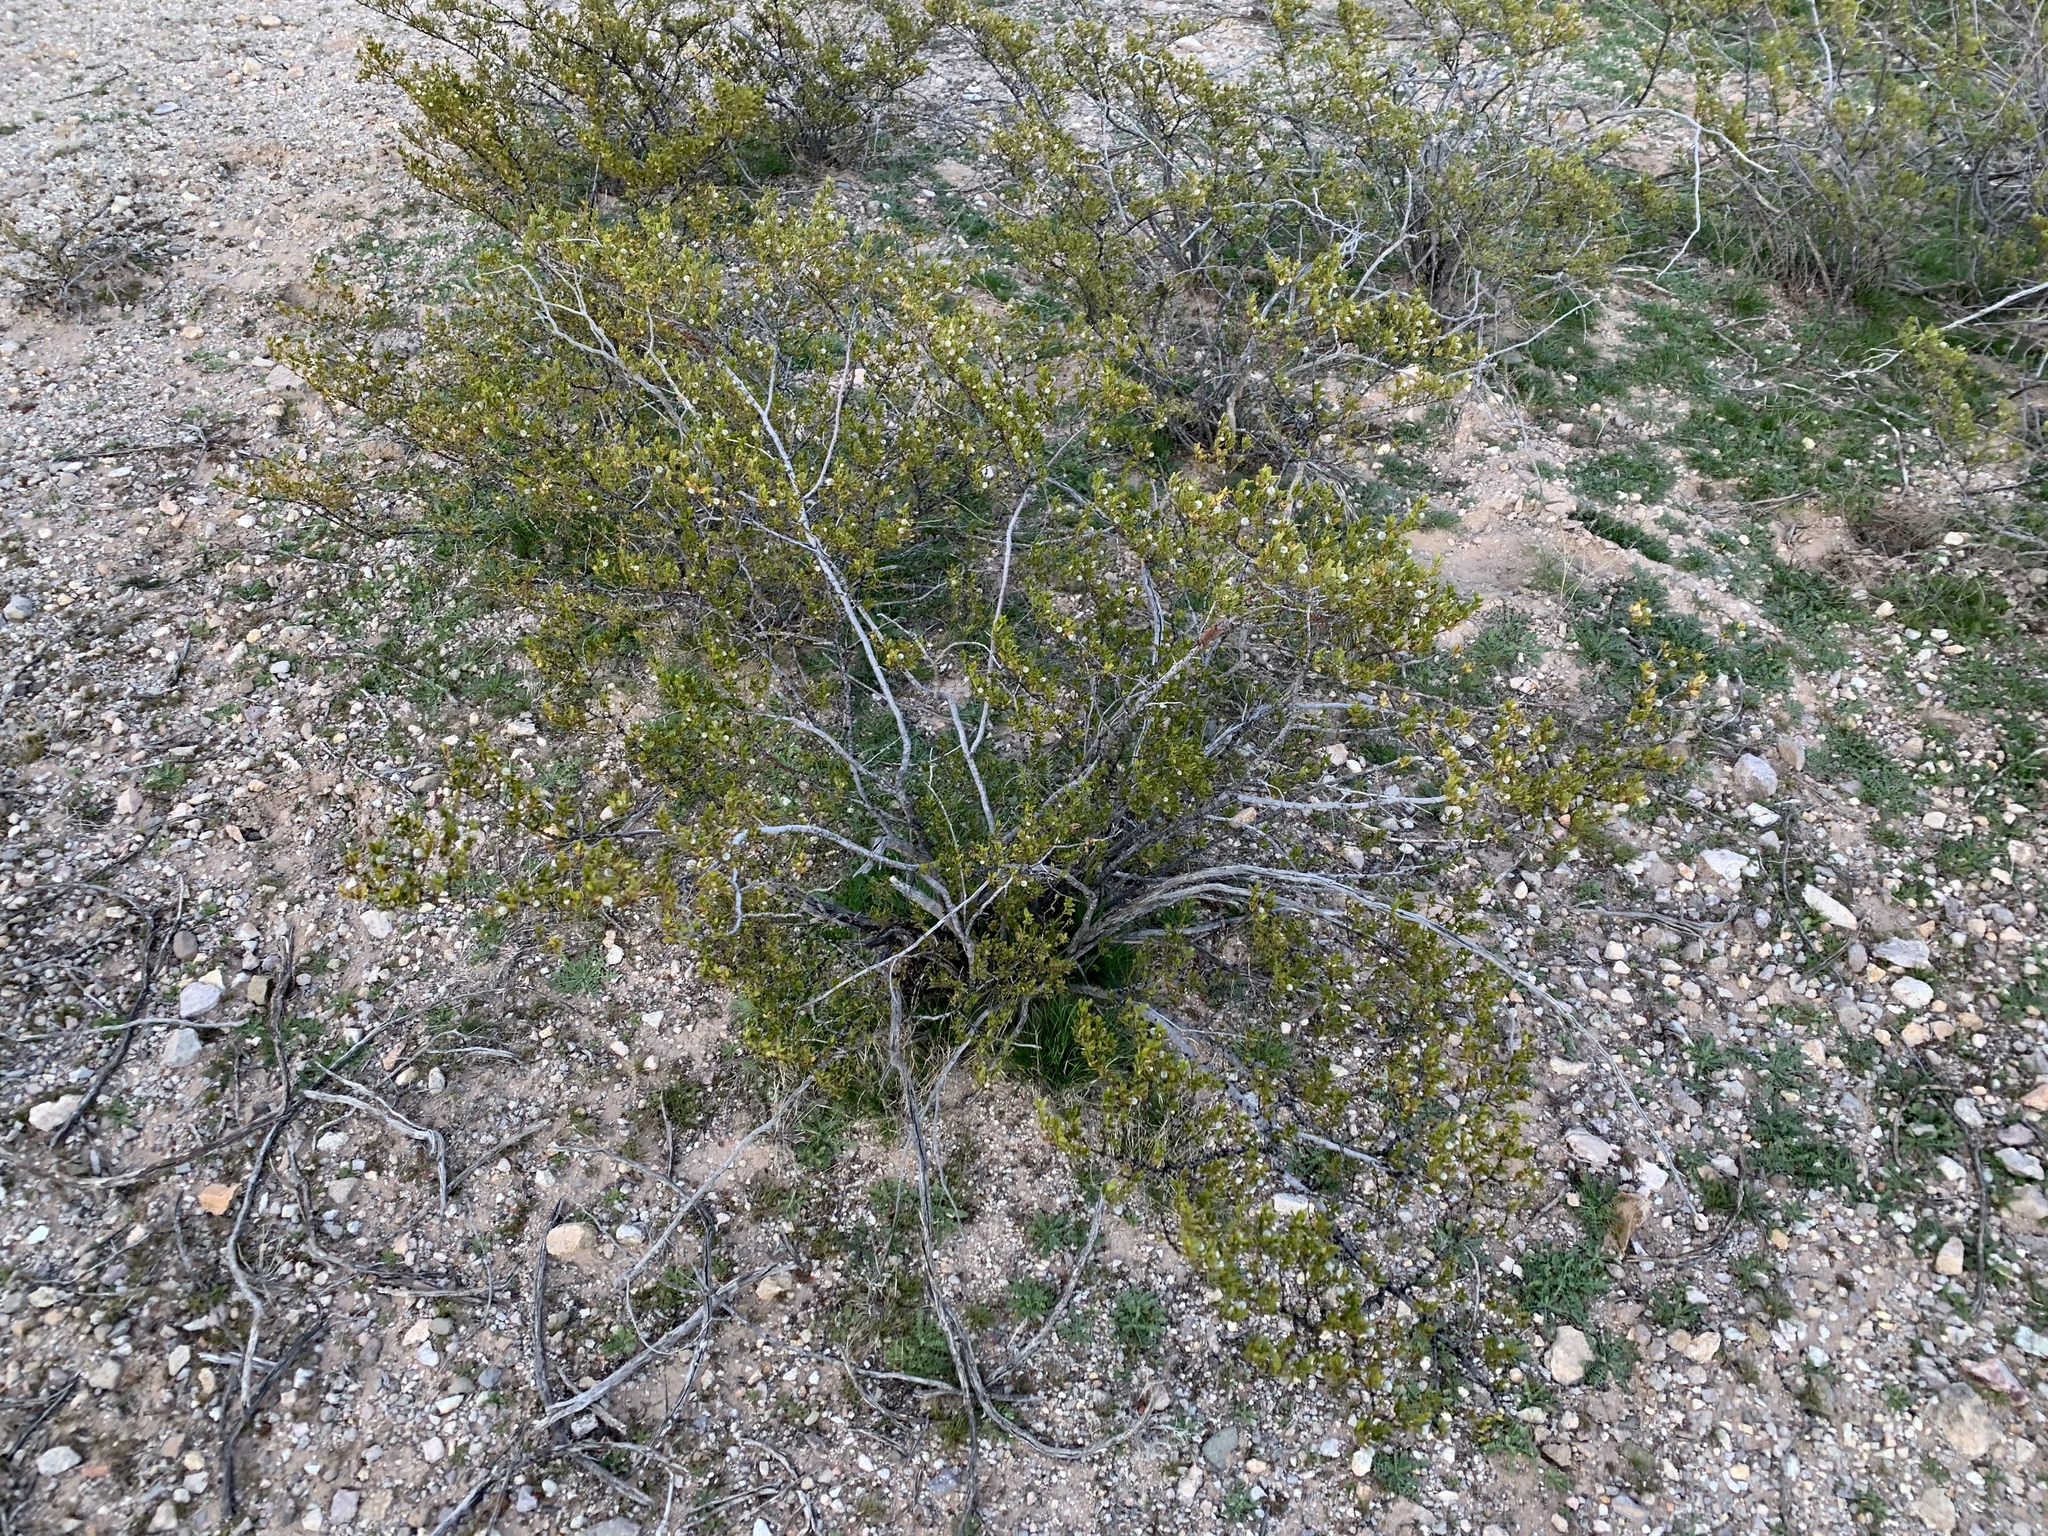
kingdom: Plantae
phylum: Tracheophyta
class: Magnoliopsida
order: Zygophyllales
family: Zygophyllaceae
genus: Larrea
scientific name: Larrea tridentata
